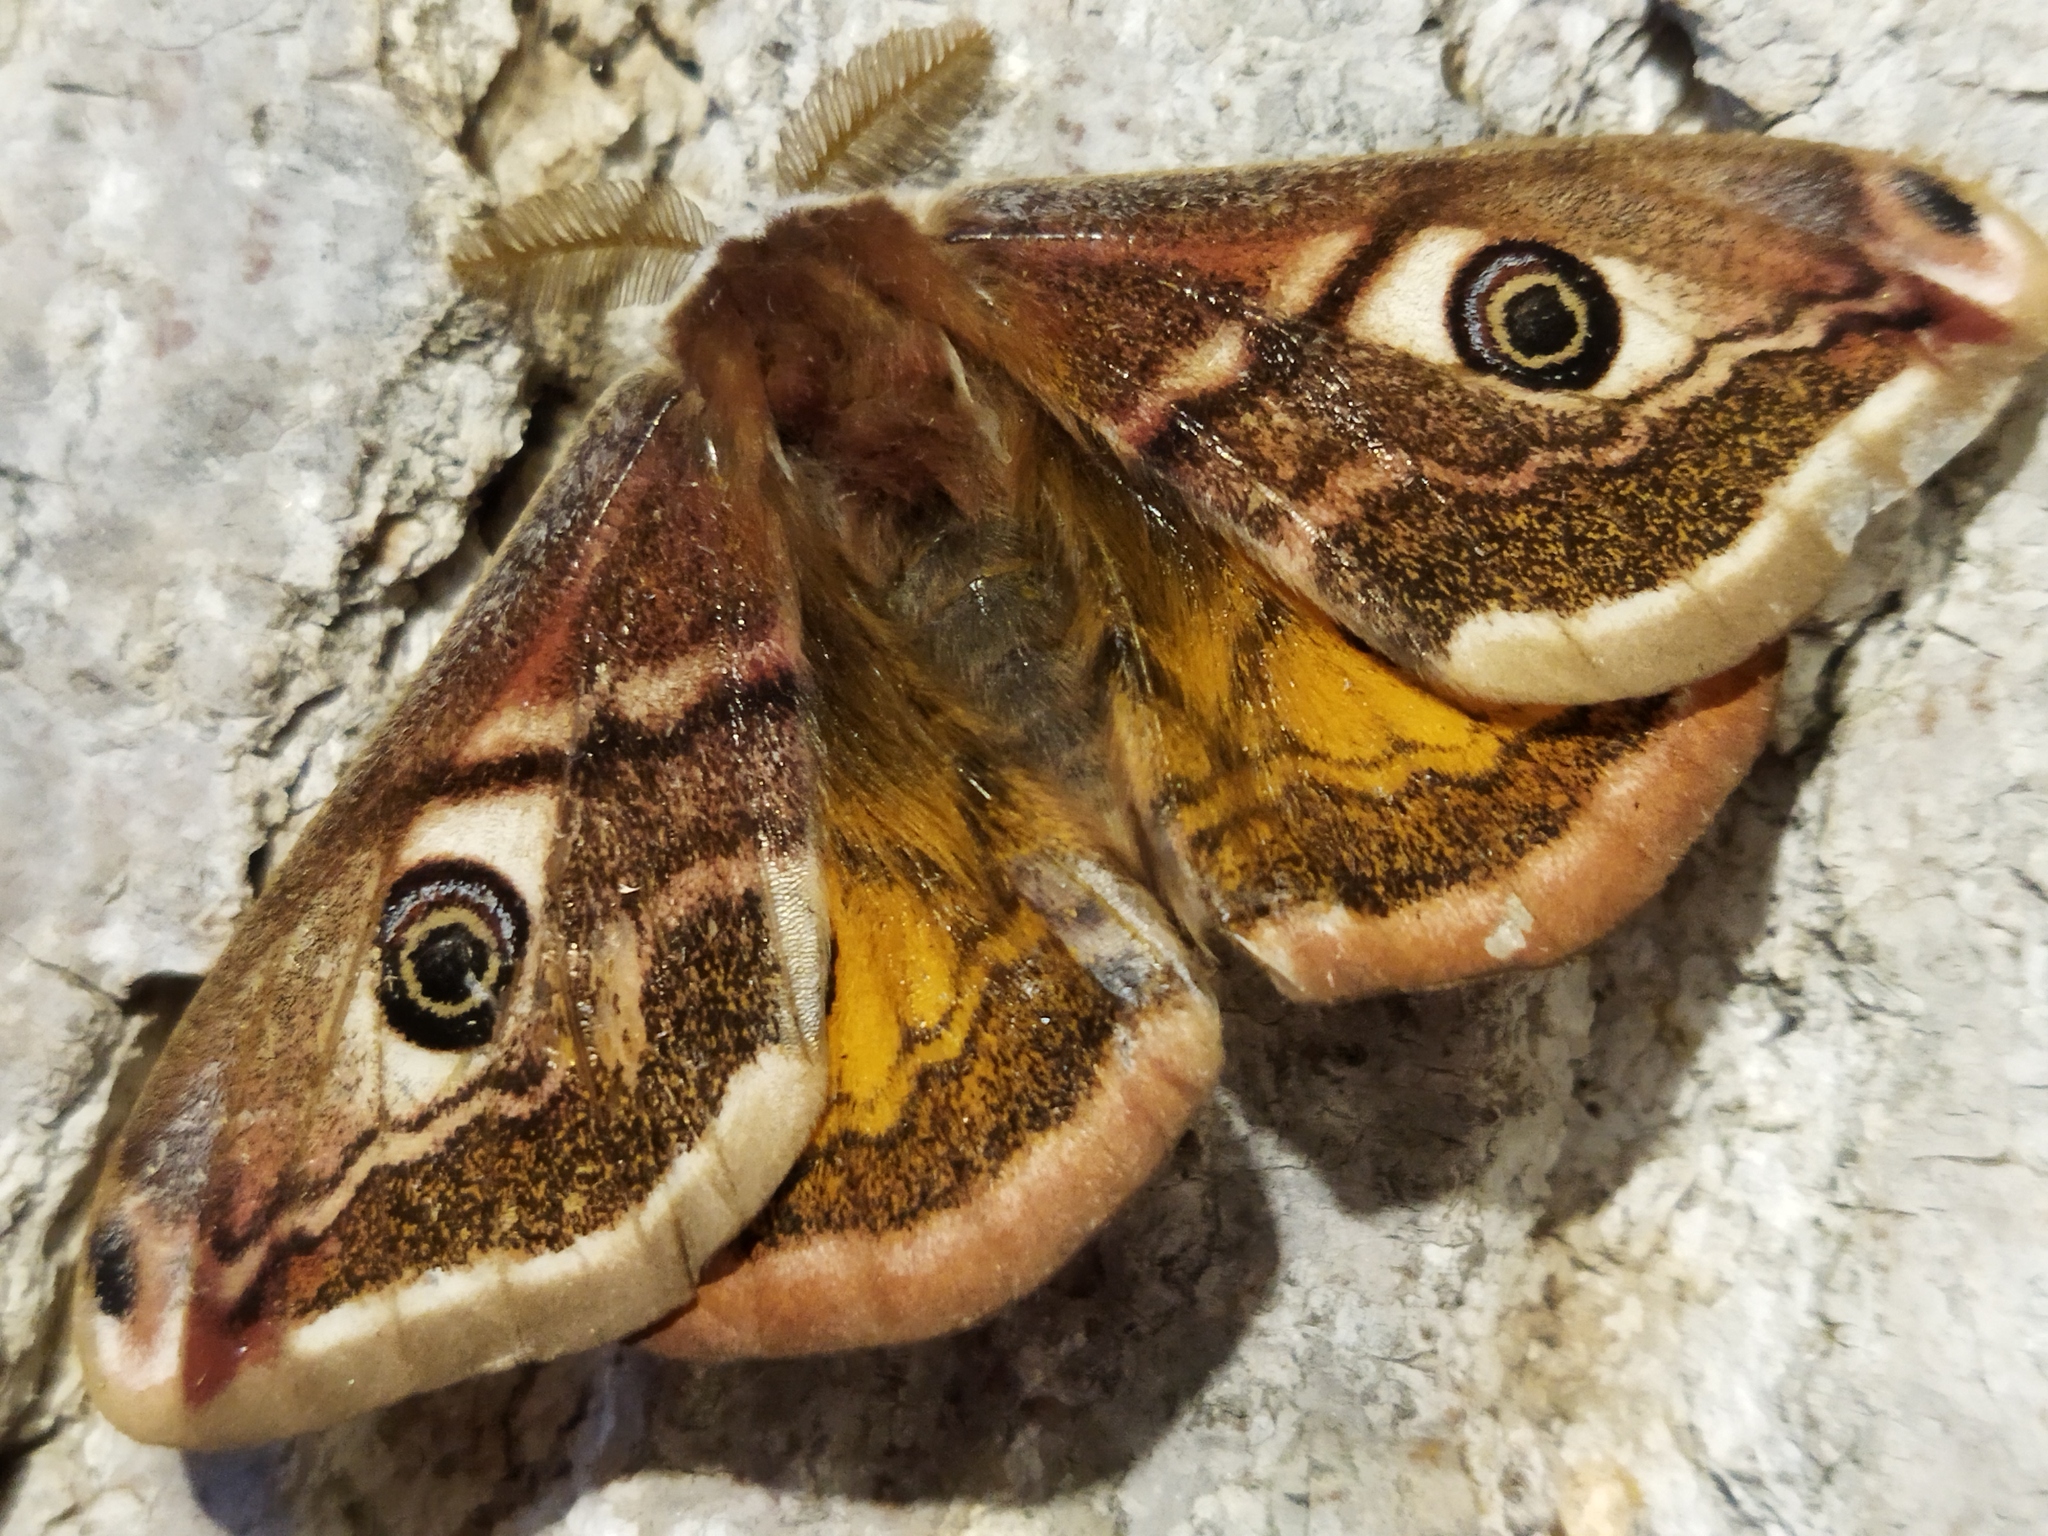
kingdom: Animalia
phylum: Arthropoda
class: Insecta
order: Lepidoptera
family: Saturniidae
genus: Saturnia
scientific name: Saturnia pavoniella
